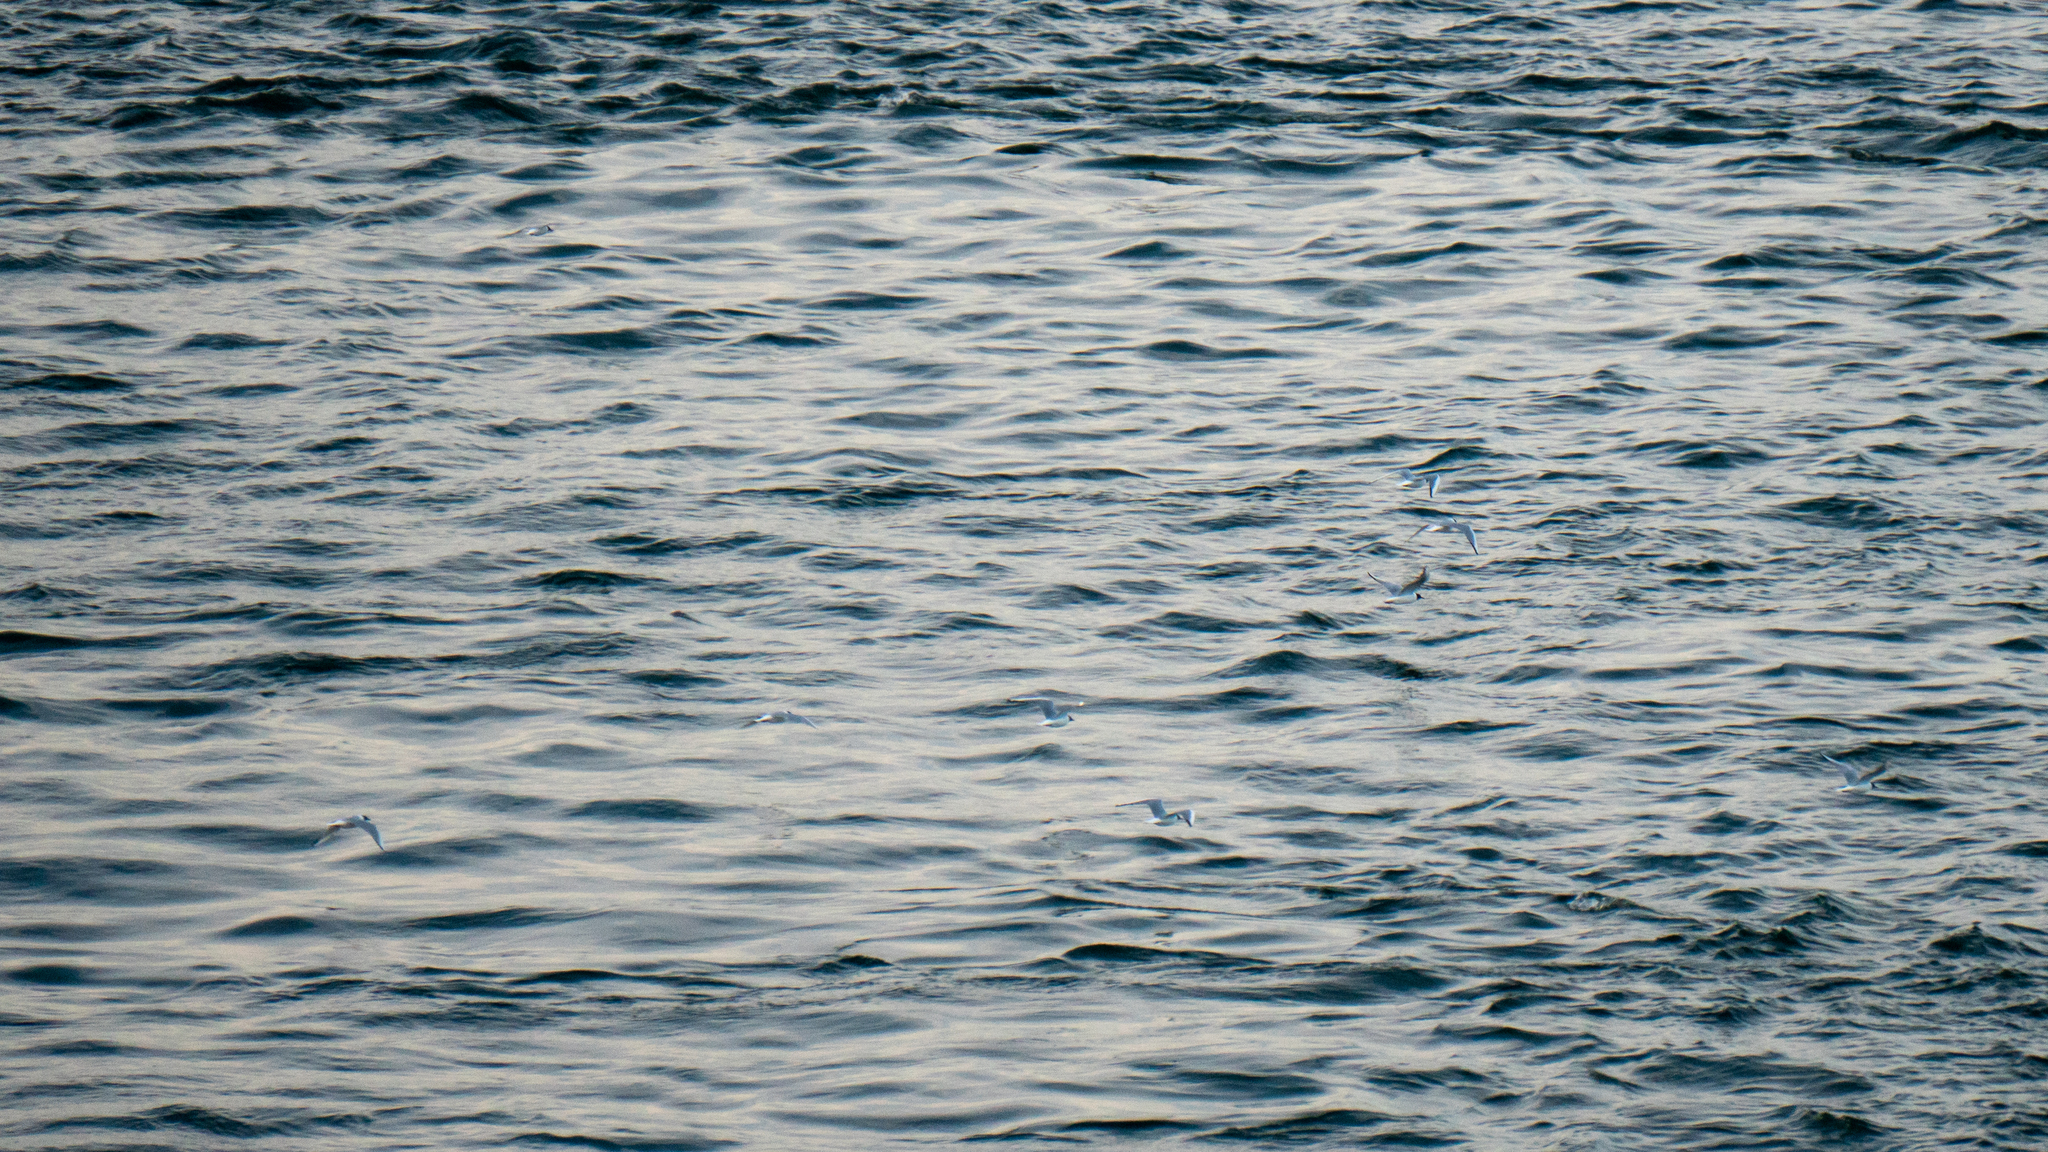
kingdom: Animalia
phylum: Chordata
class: Aves
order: Charadriiformes
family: Laridae
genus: Chroicocephalus
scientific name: Chroicocephalus philadelphia
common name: Bonaparte's gull
